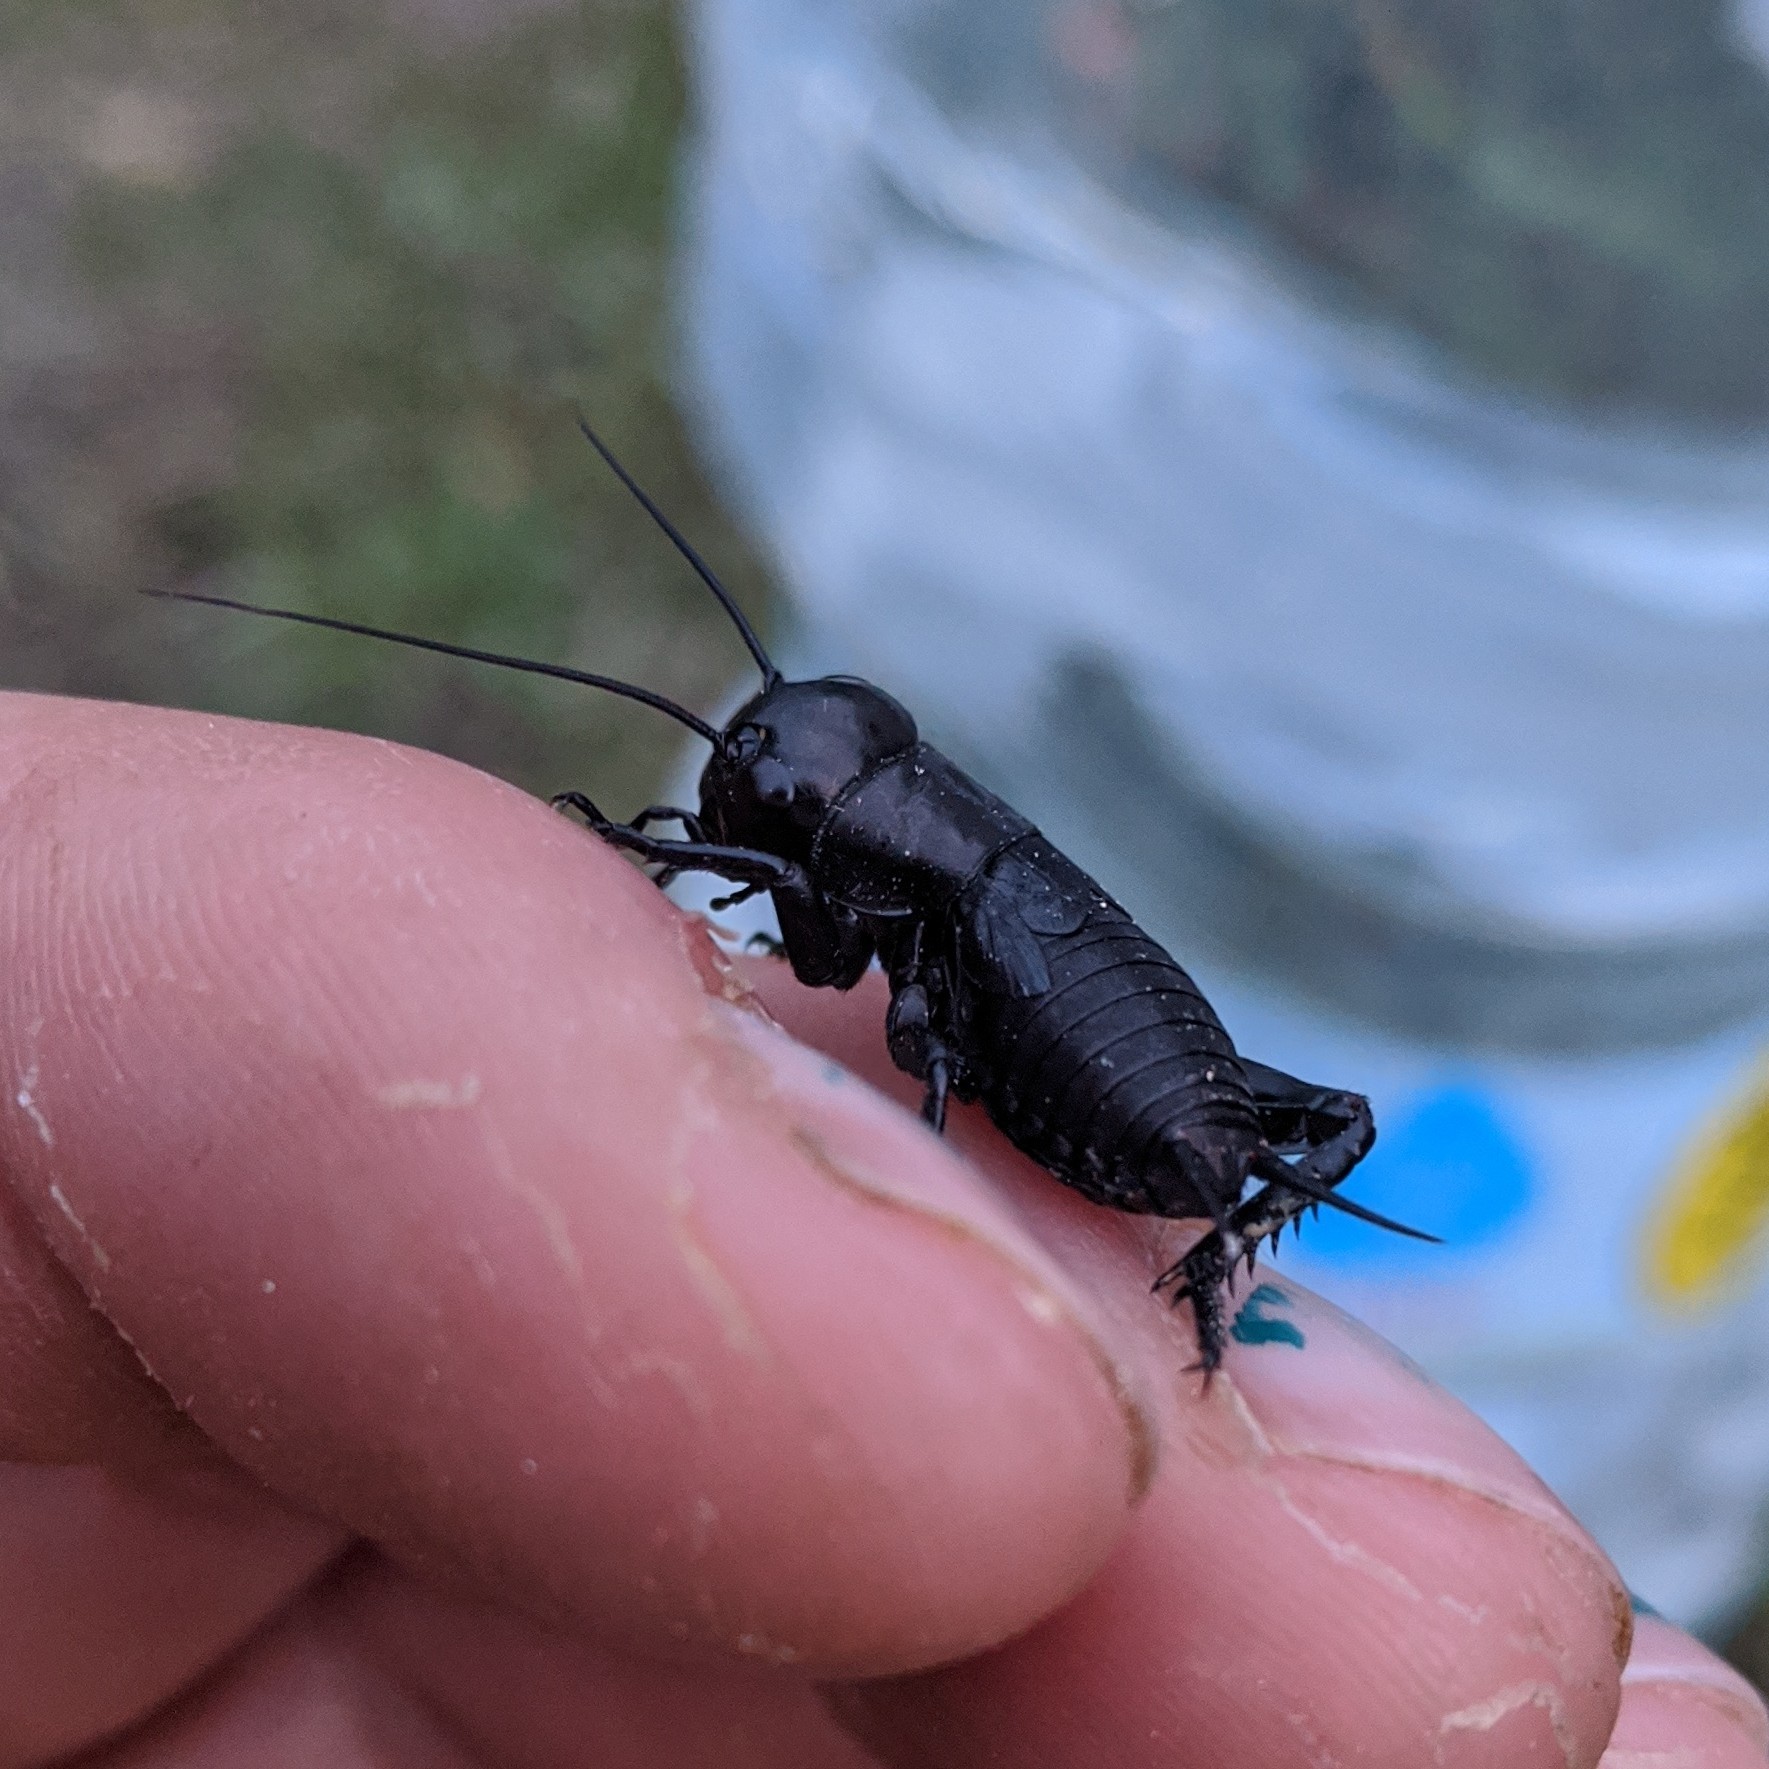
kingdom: Animalia
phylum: Arthropoda
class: Insecta
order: Orthoptera
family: Gryllidae
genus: Gryllus
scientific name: Gryllus campestris
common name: Field cricket
